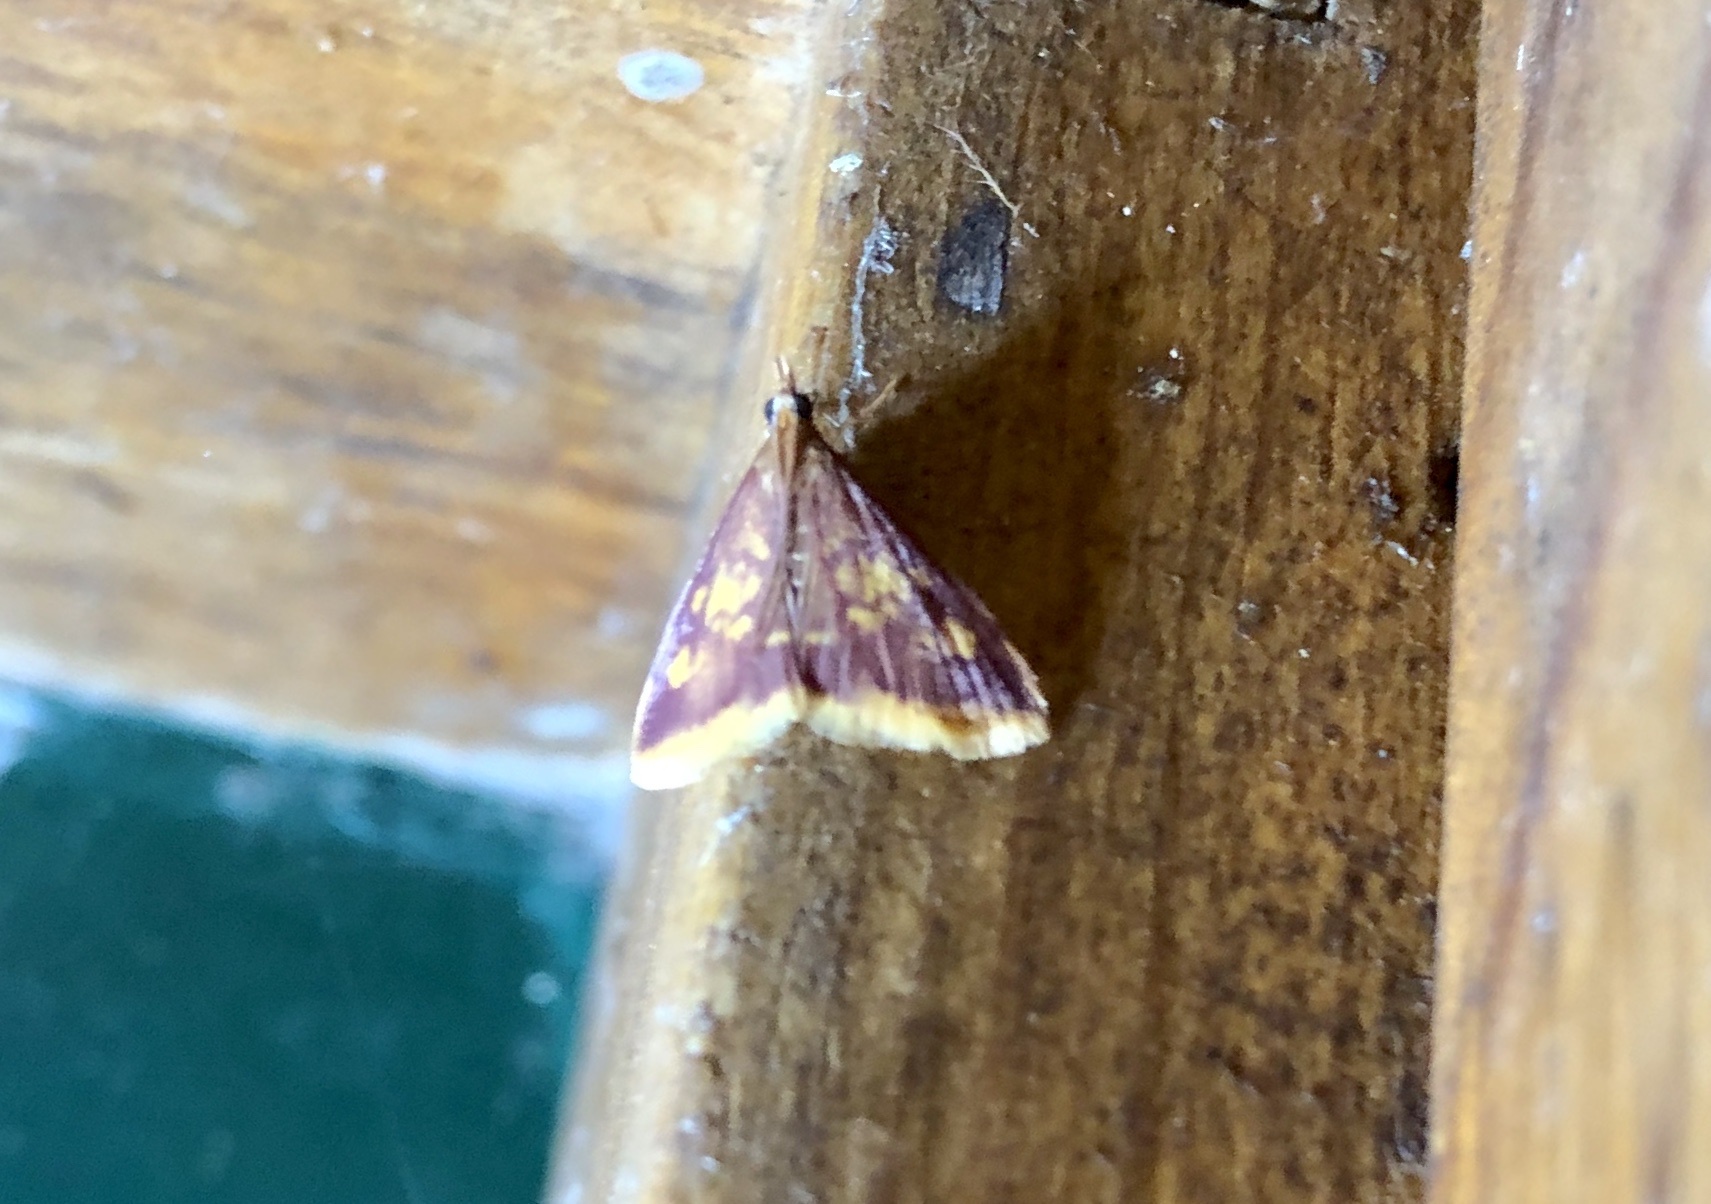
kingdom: Animalia
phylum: Arthropoda
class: Insecta
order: Lepidoptera
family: Crambidae
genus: Pyrausta
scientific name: Pyrausta acrionalis
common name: Mint-loving pyrausta moth
